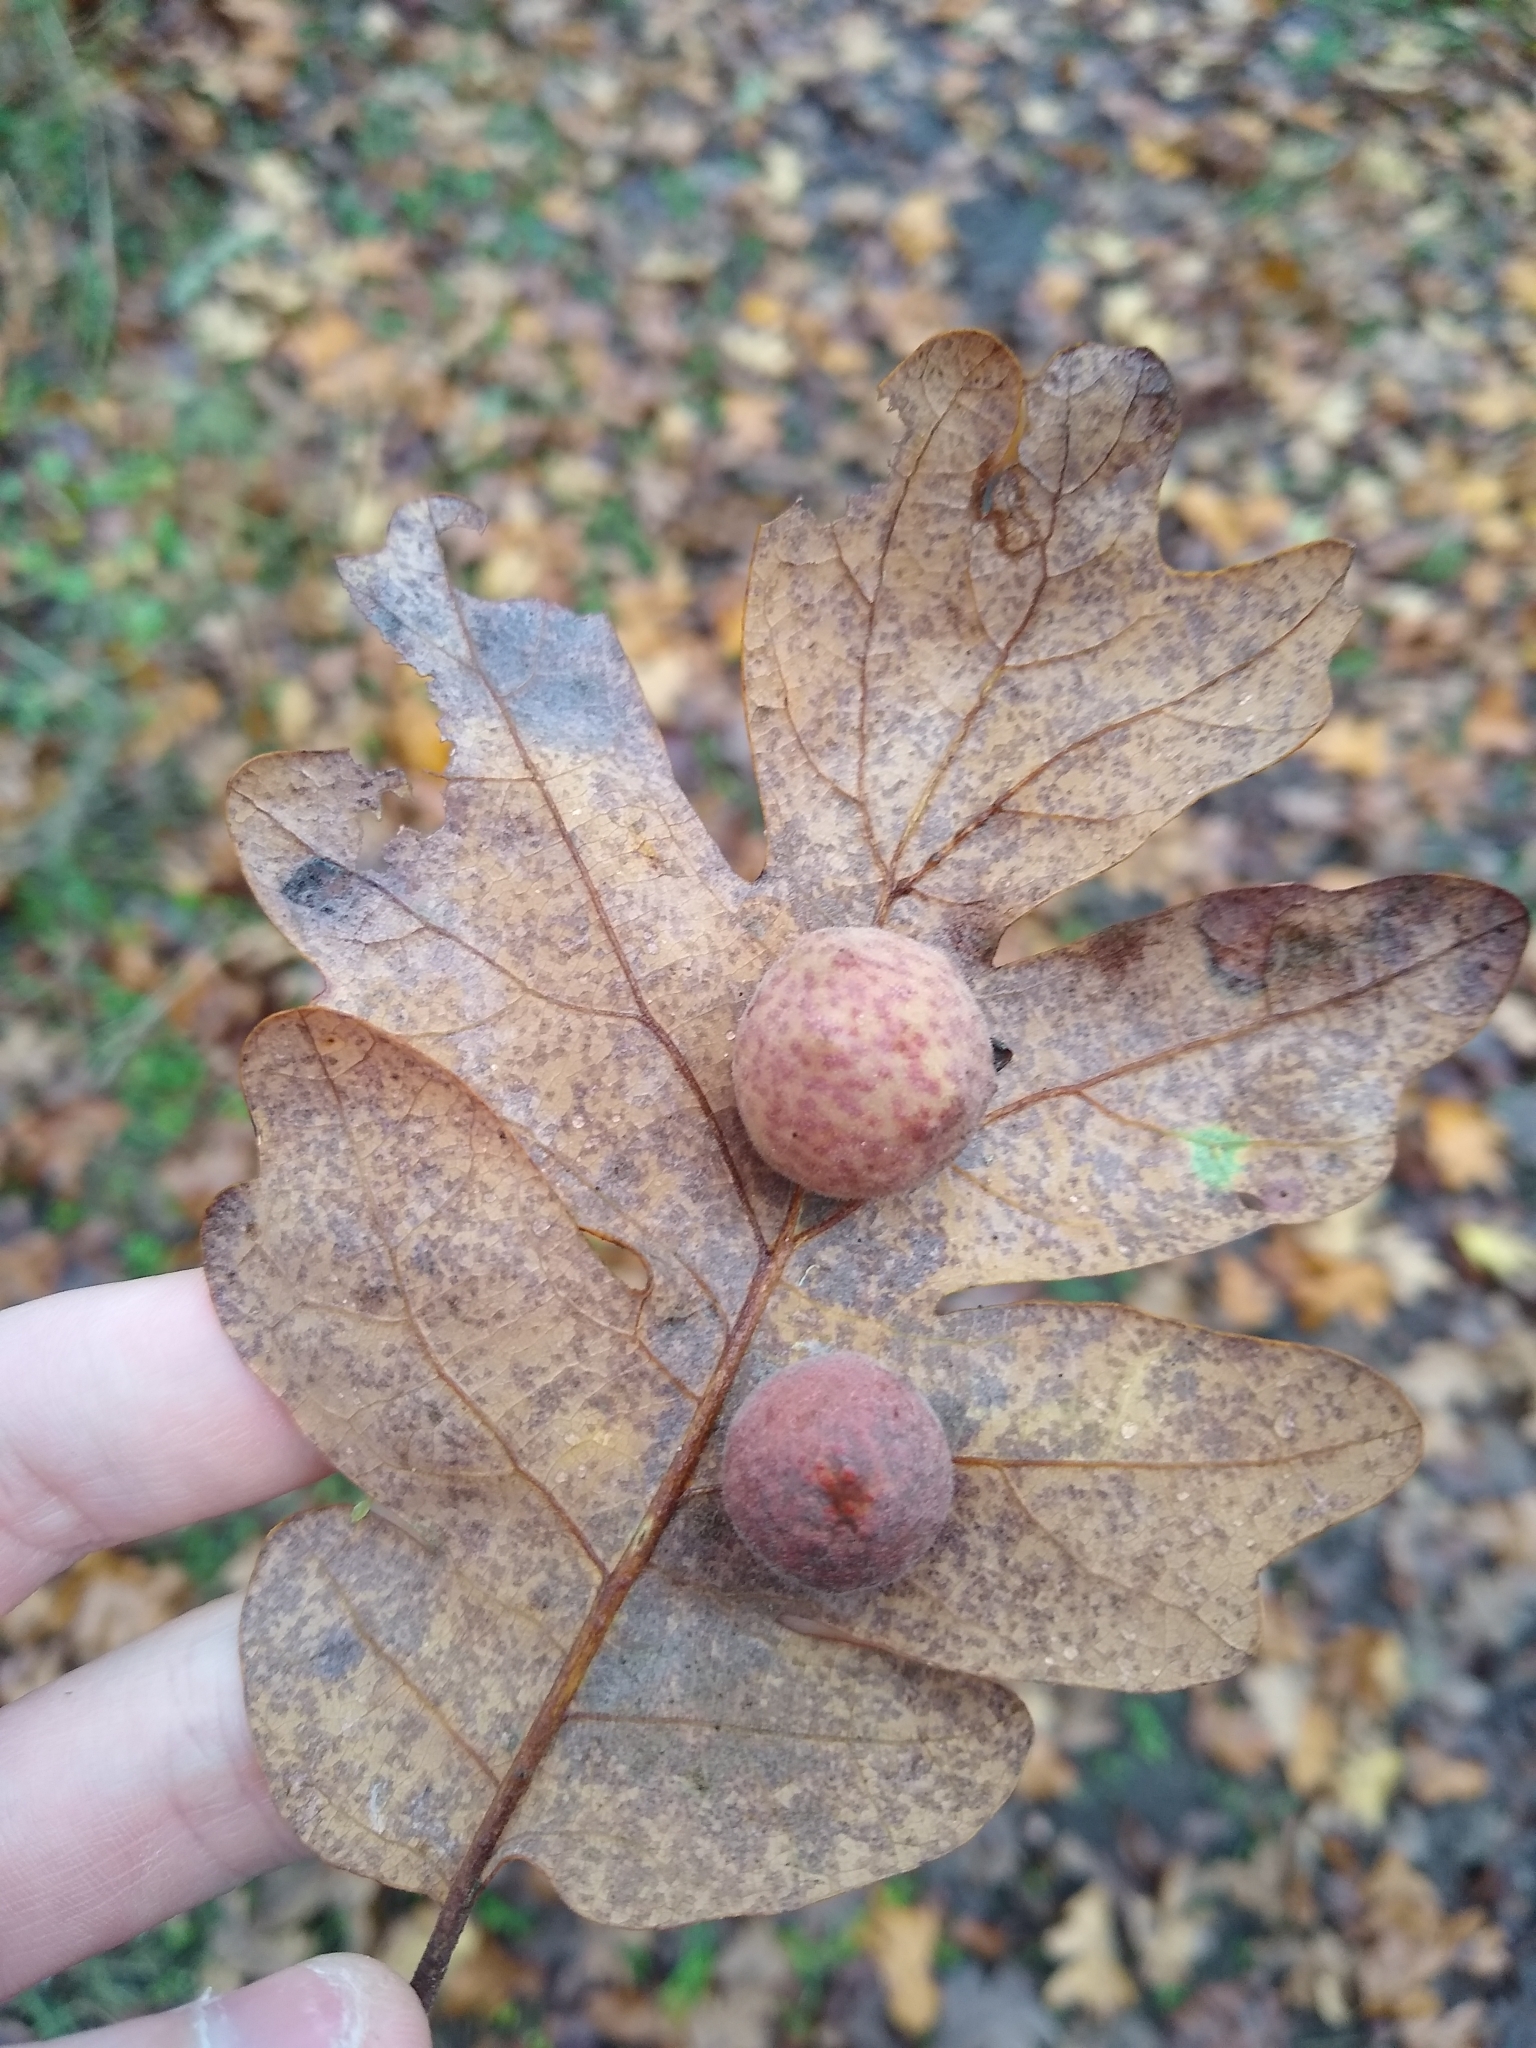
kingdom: Animalia
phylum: Arthropoda
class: Insecta
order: Hymenoptera
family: Cynipidae
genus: Cynips
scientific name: Cynips
